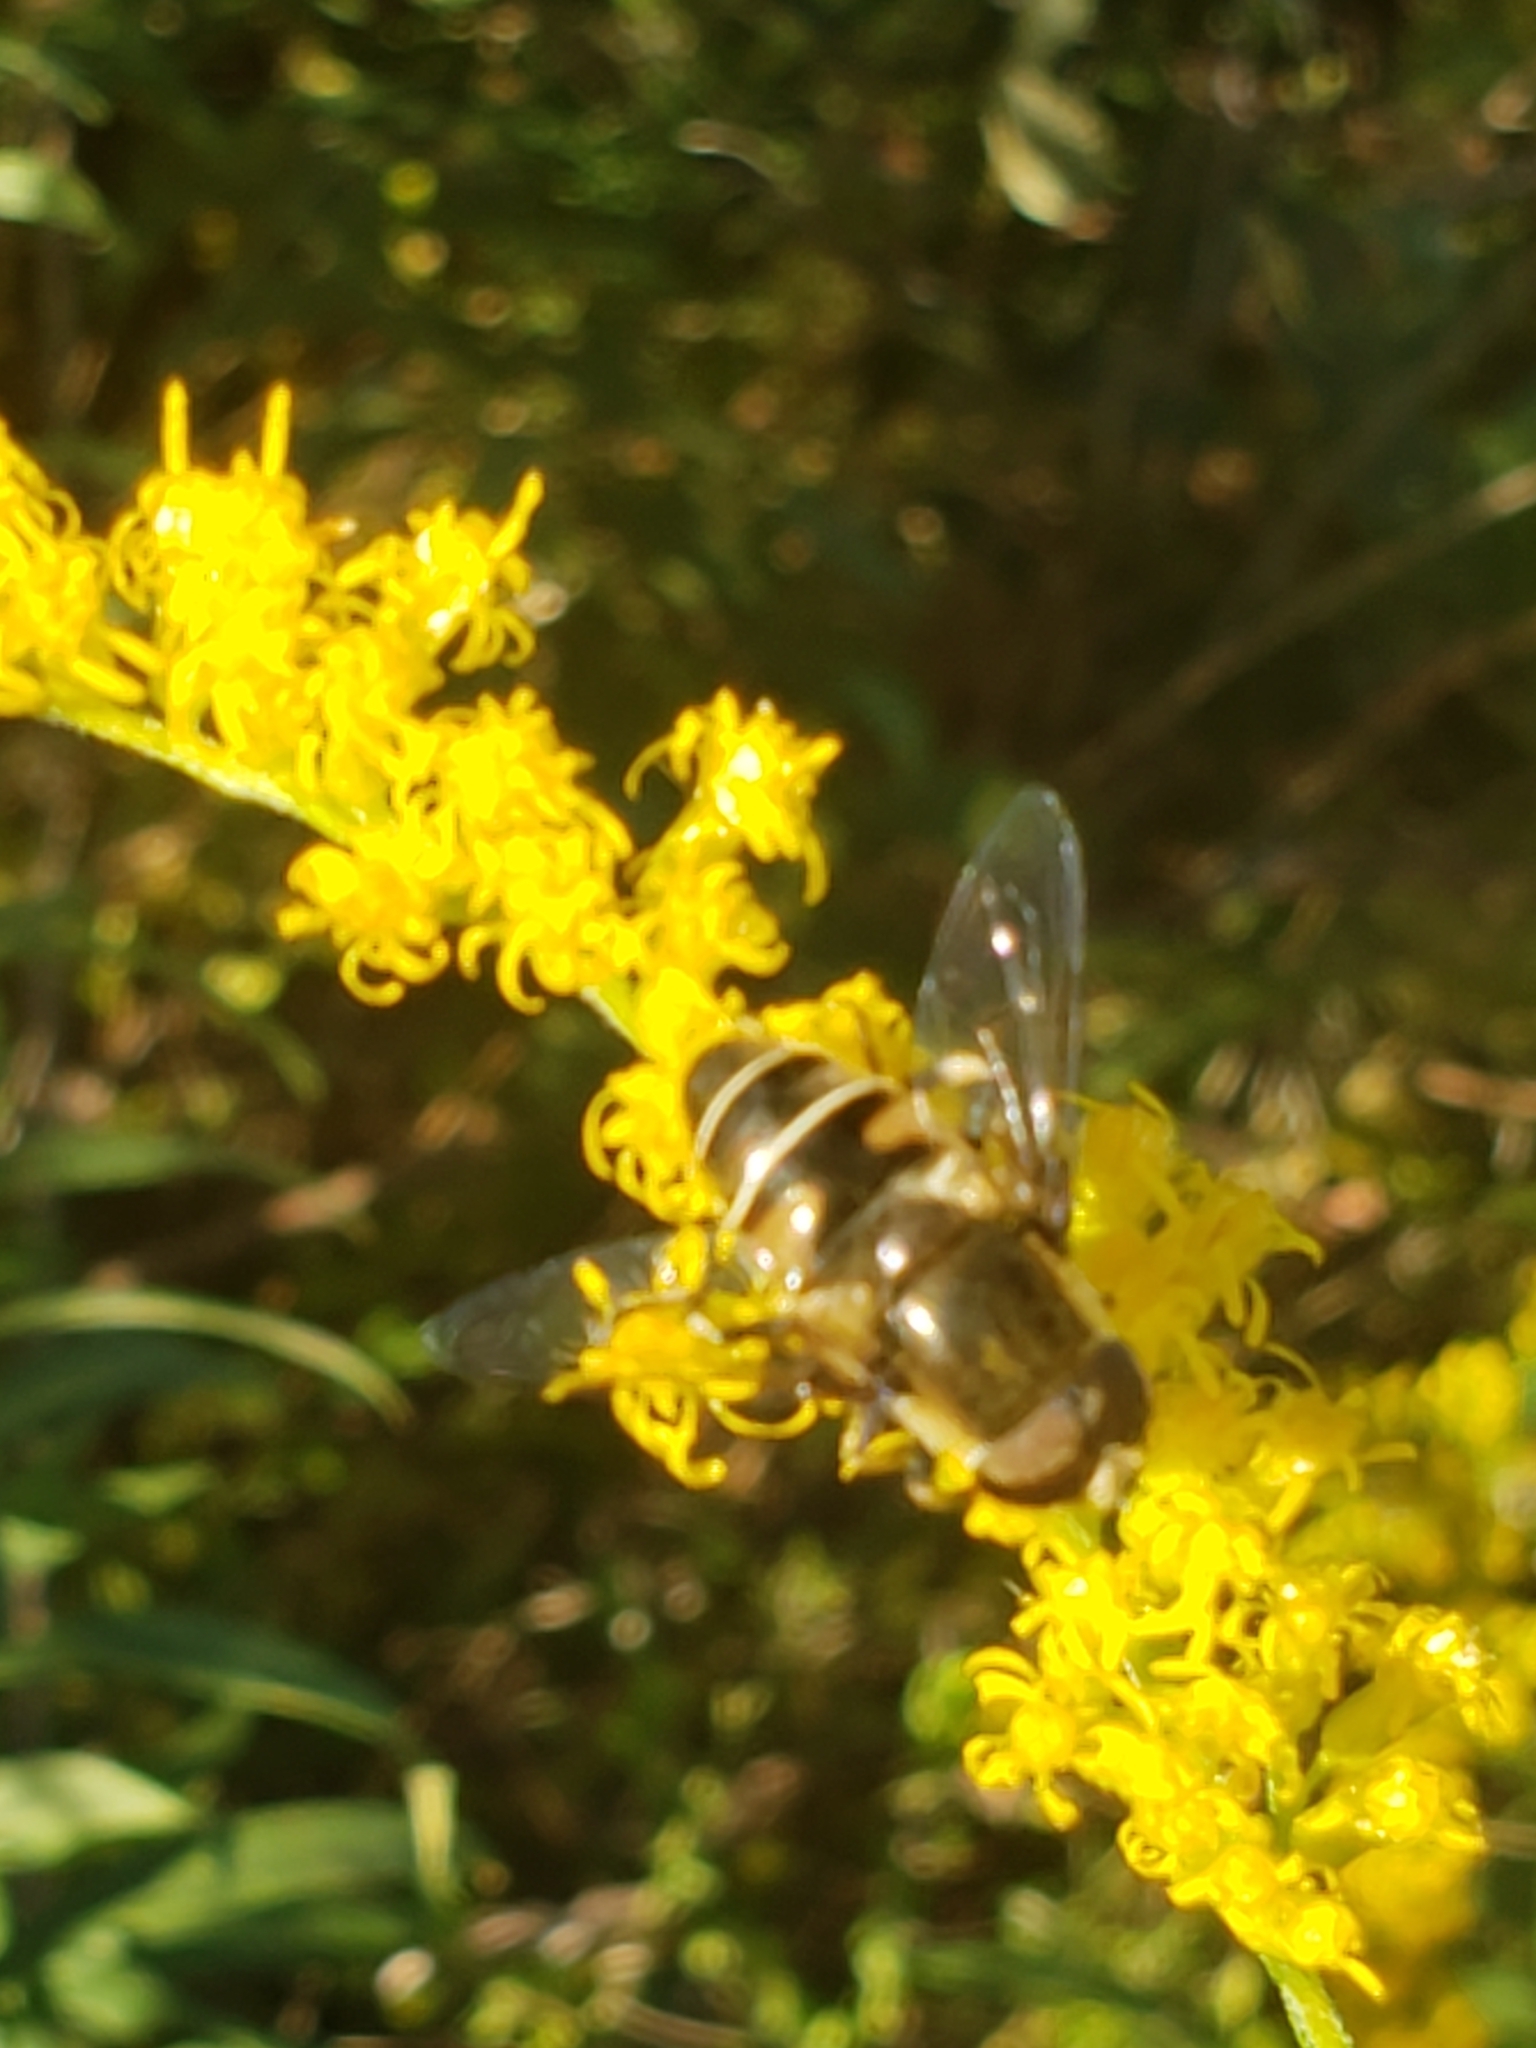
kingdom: Animalia
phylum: Arthropoda
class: Insecta
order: Diptera
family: Syrphidae
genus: Eristalis
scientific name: Eristalis dimidiata
